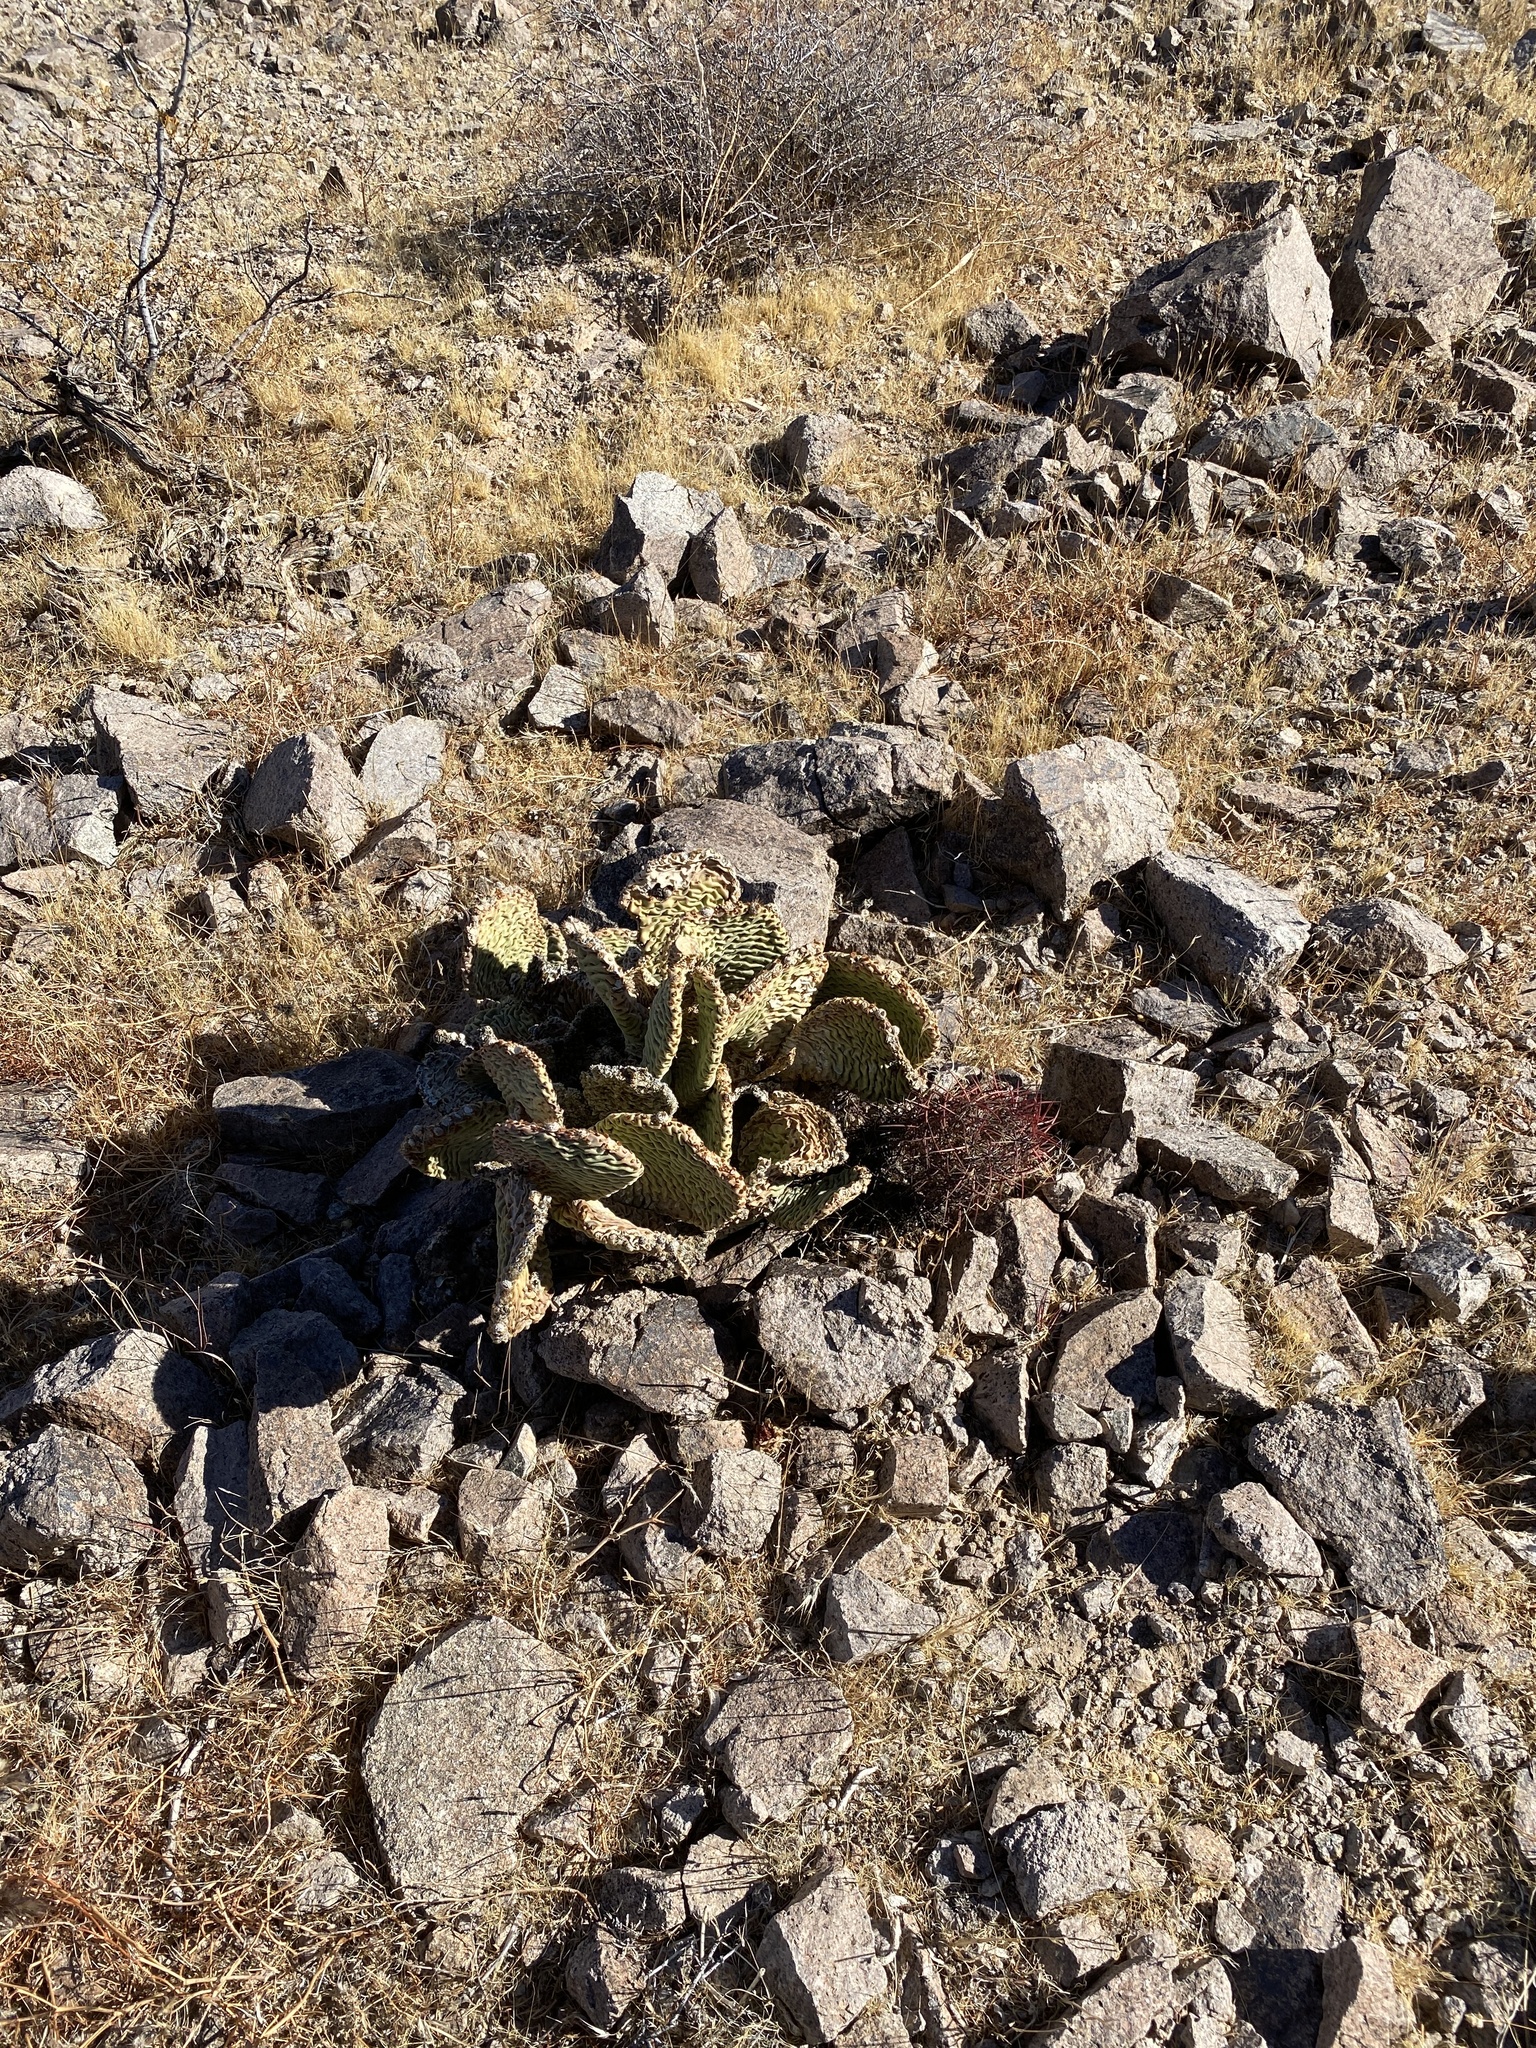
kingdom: Plantae
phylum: Tracheophyta
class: Magnoliopsida
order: Caryophyllales
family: Cactaceae
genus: Opuntia
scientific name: Opuntia basilaris
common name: Beavertail prickly-pear
